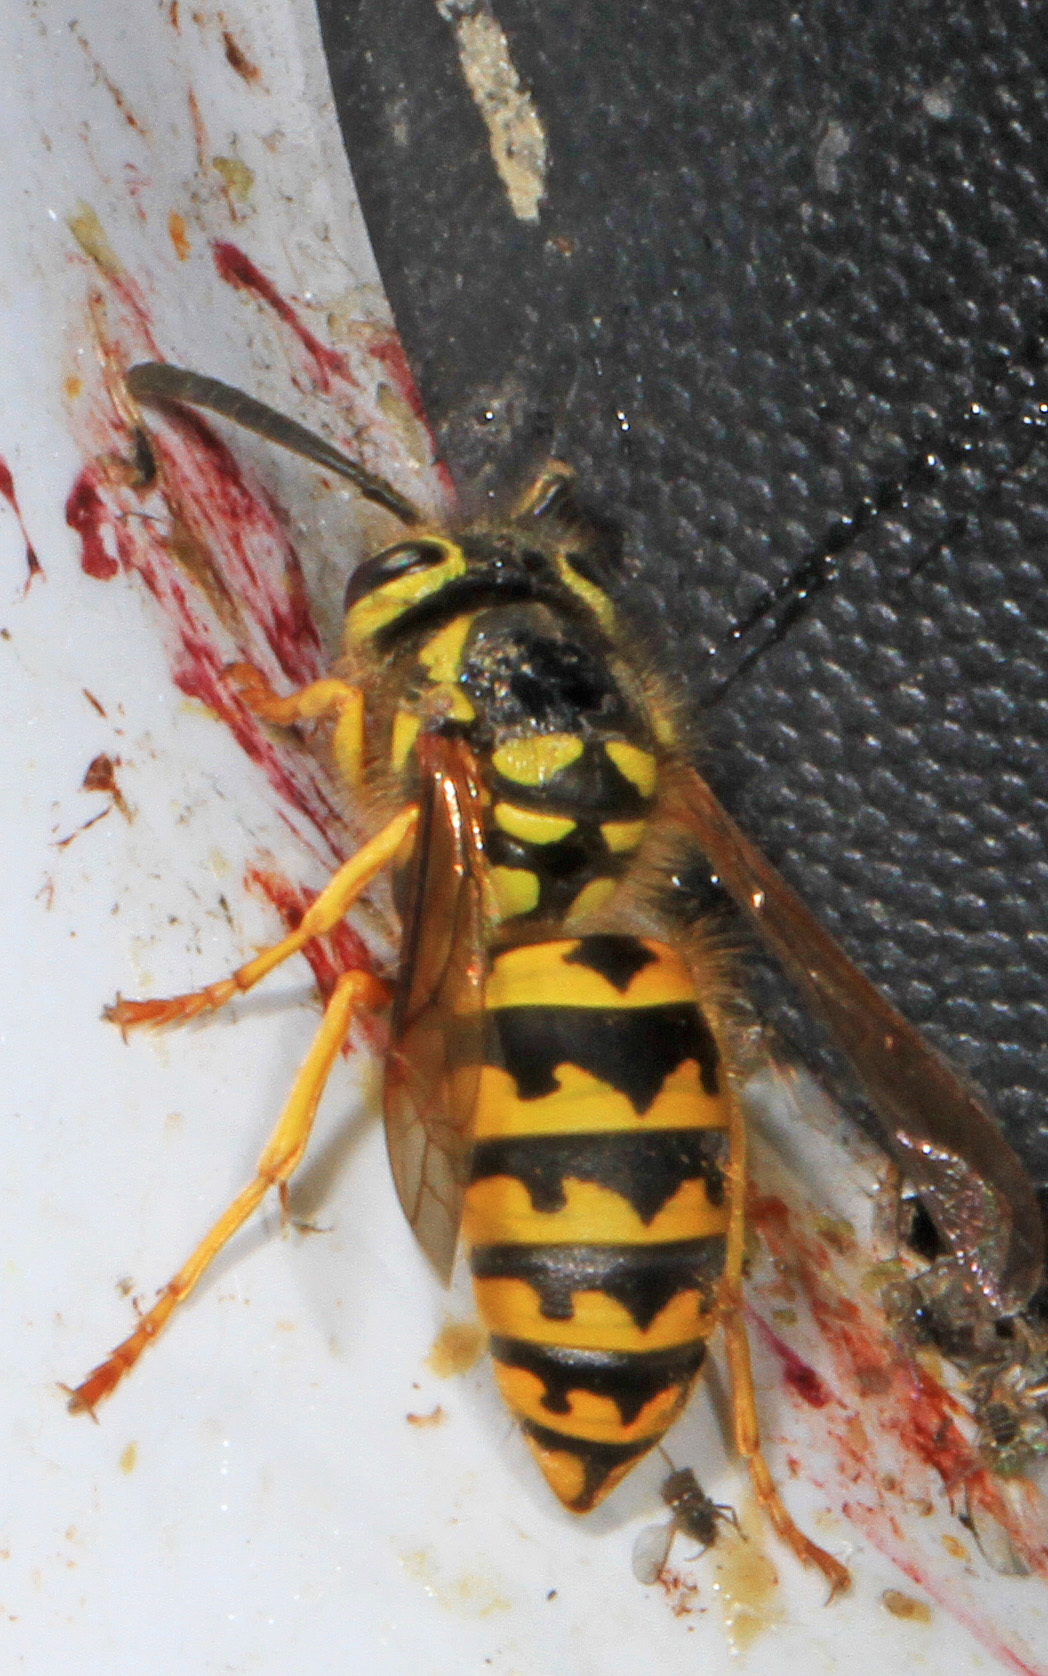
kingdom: Animalia
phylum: Arthropoda
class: Insecta
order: Hymenoptera
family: Vespidae
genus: Vespula
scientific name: Vespula pensylvanica
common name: Western yellowjacket
